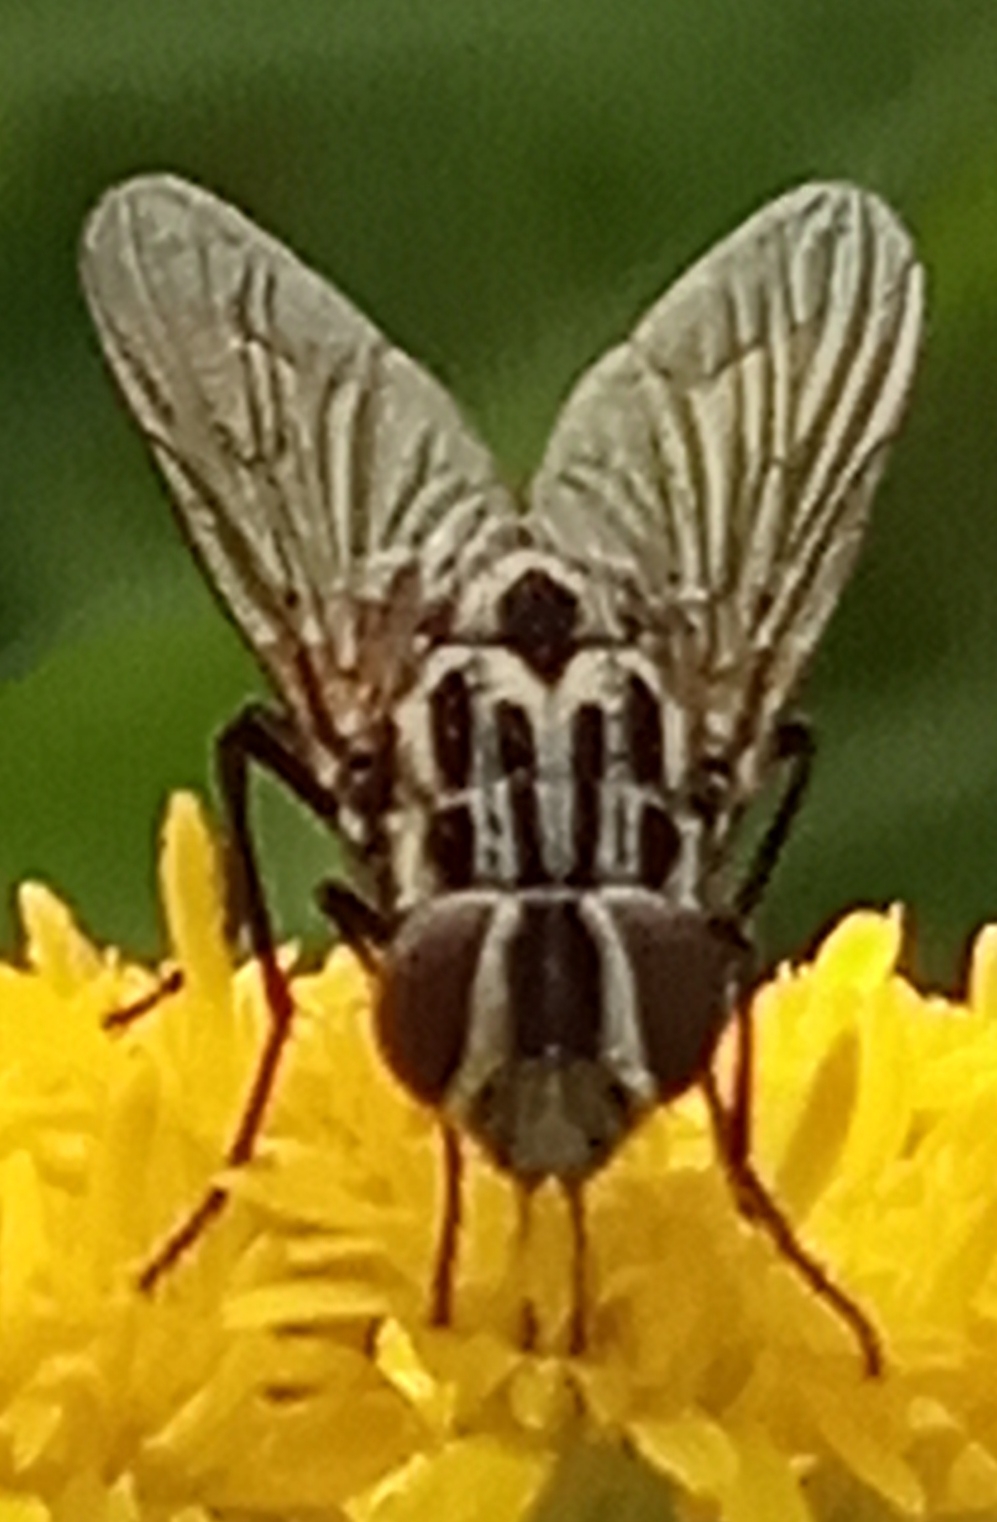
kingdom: Animalia
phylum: Arthropoda
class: Insecta
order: Diptera
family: Muscidae
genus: Graphomya
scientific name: Graphomya maculata
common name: Muscid fly
